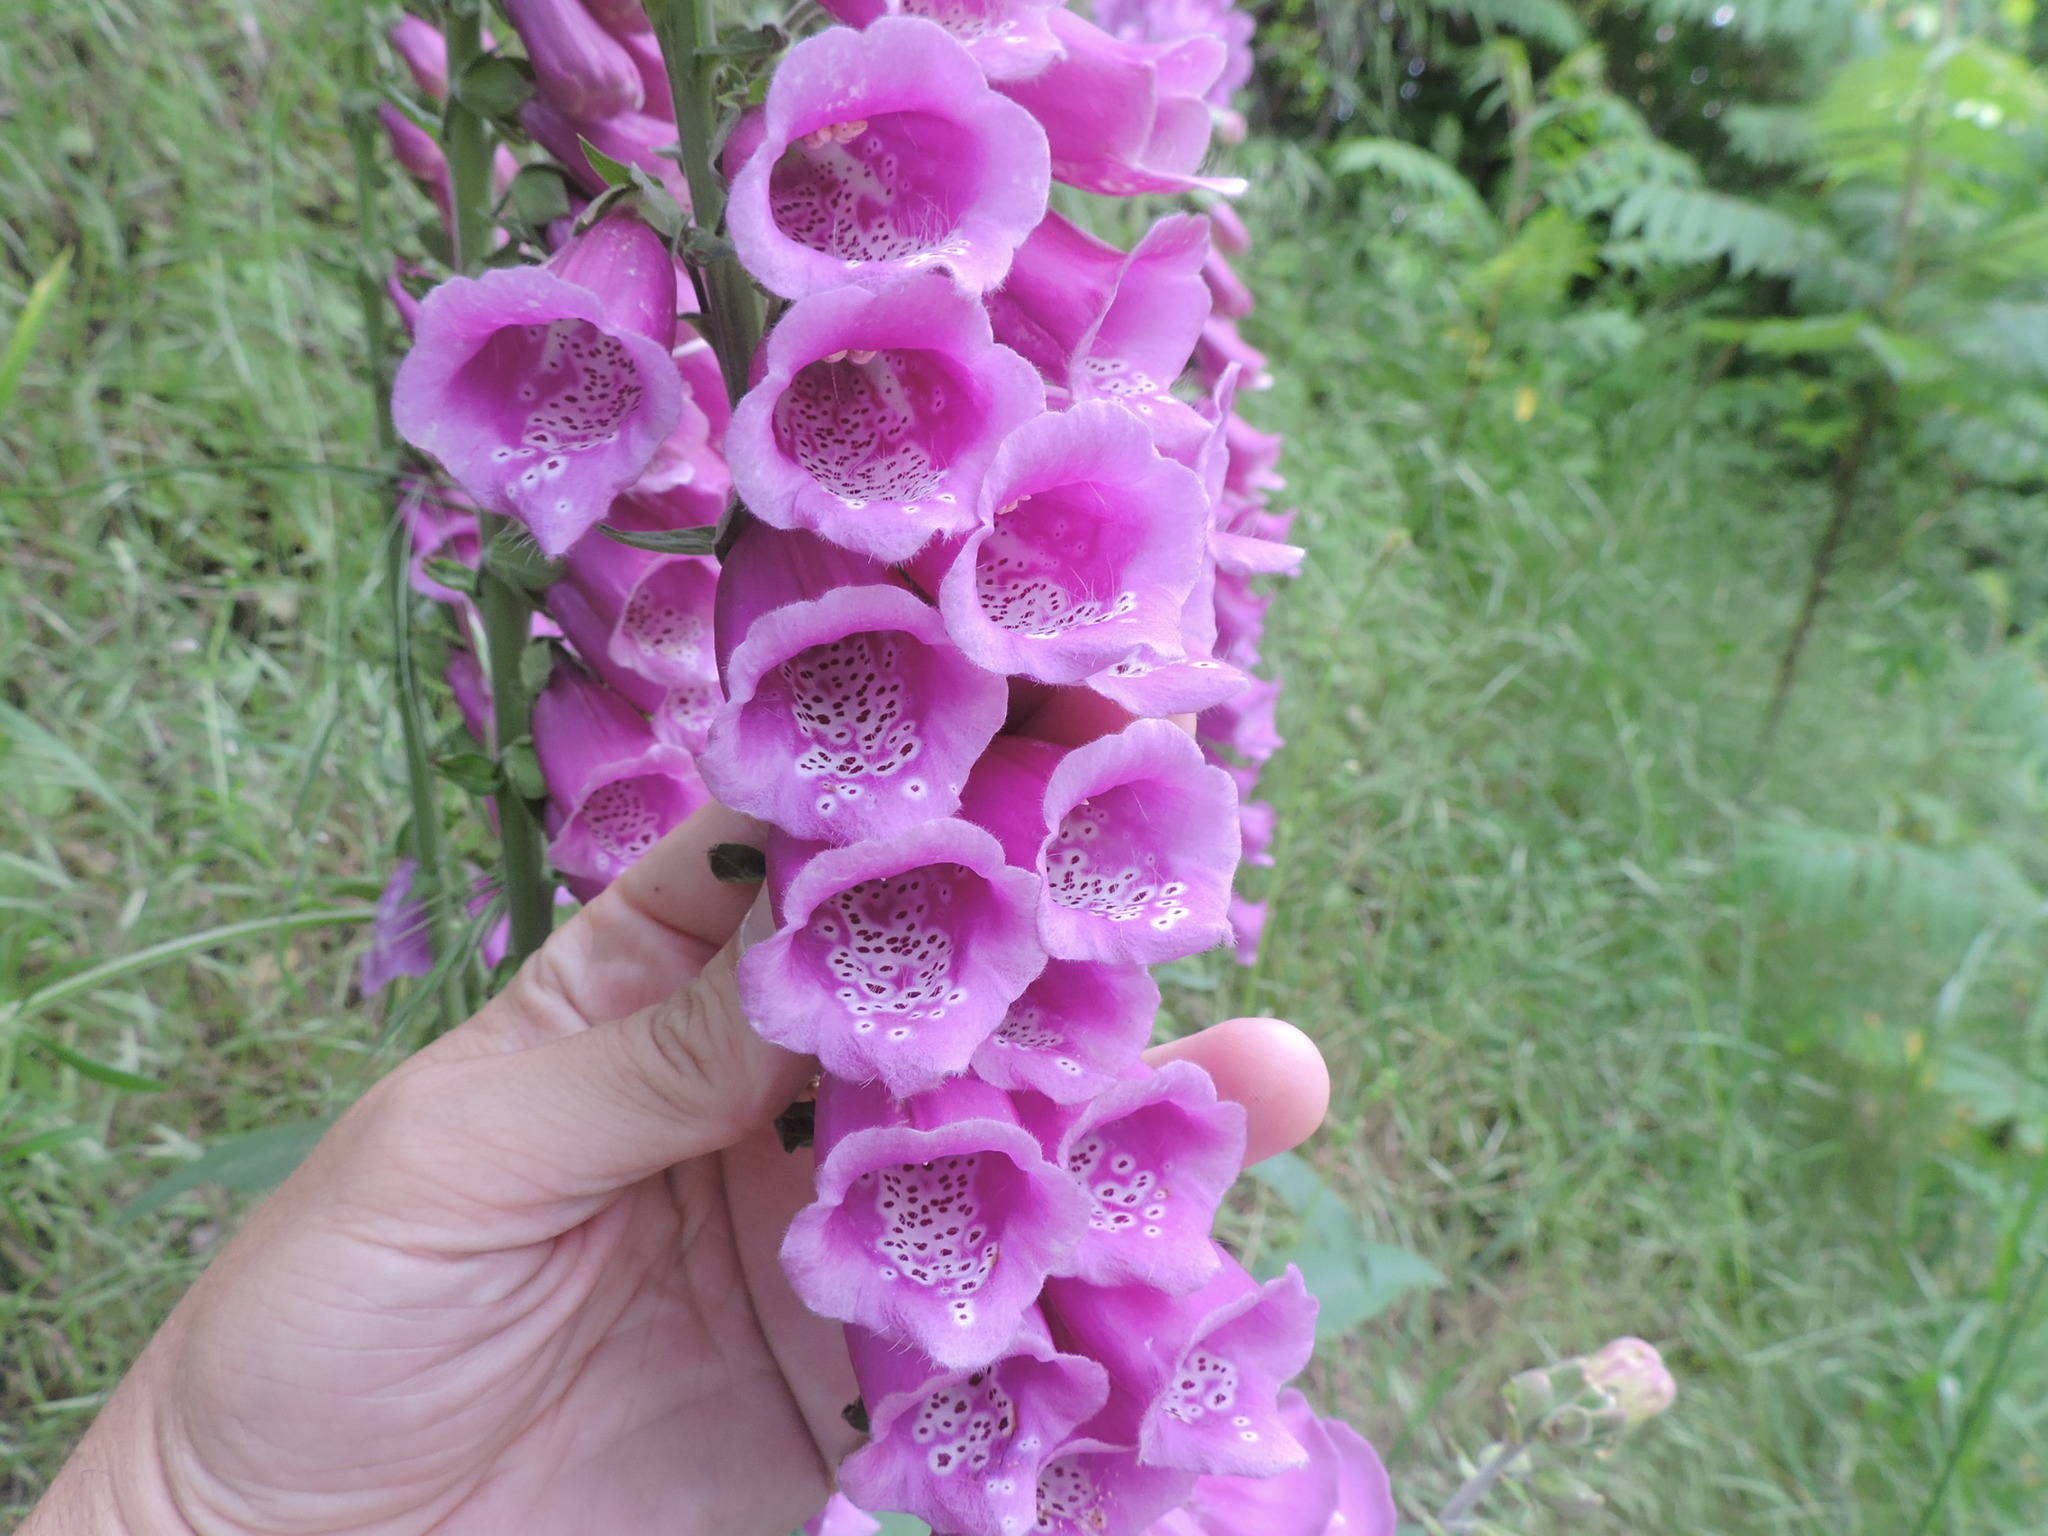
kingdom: Plantae
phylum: Tracheophyta
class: Magnoliopsida
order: Lamiales
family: Plantaginaceae
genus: Digitalis
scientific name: Digitalis purpurea
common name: Foxglove
